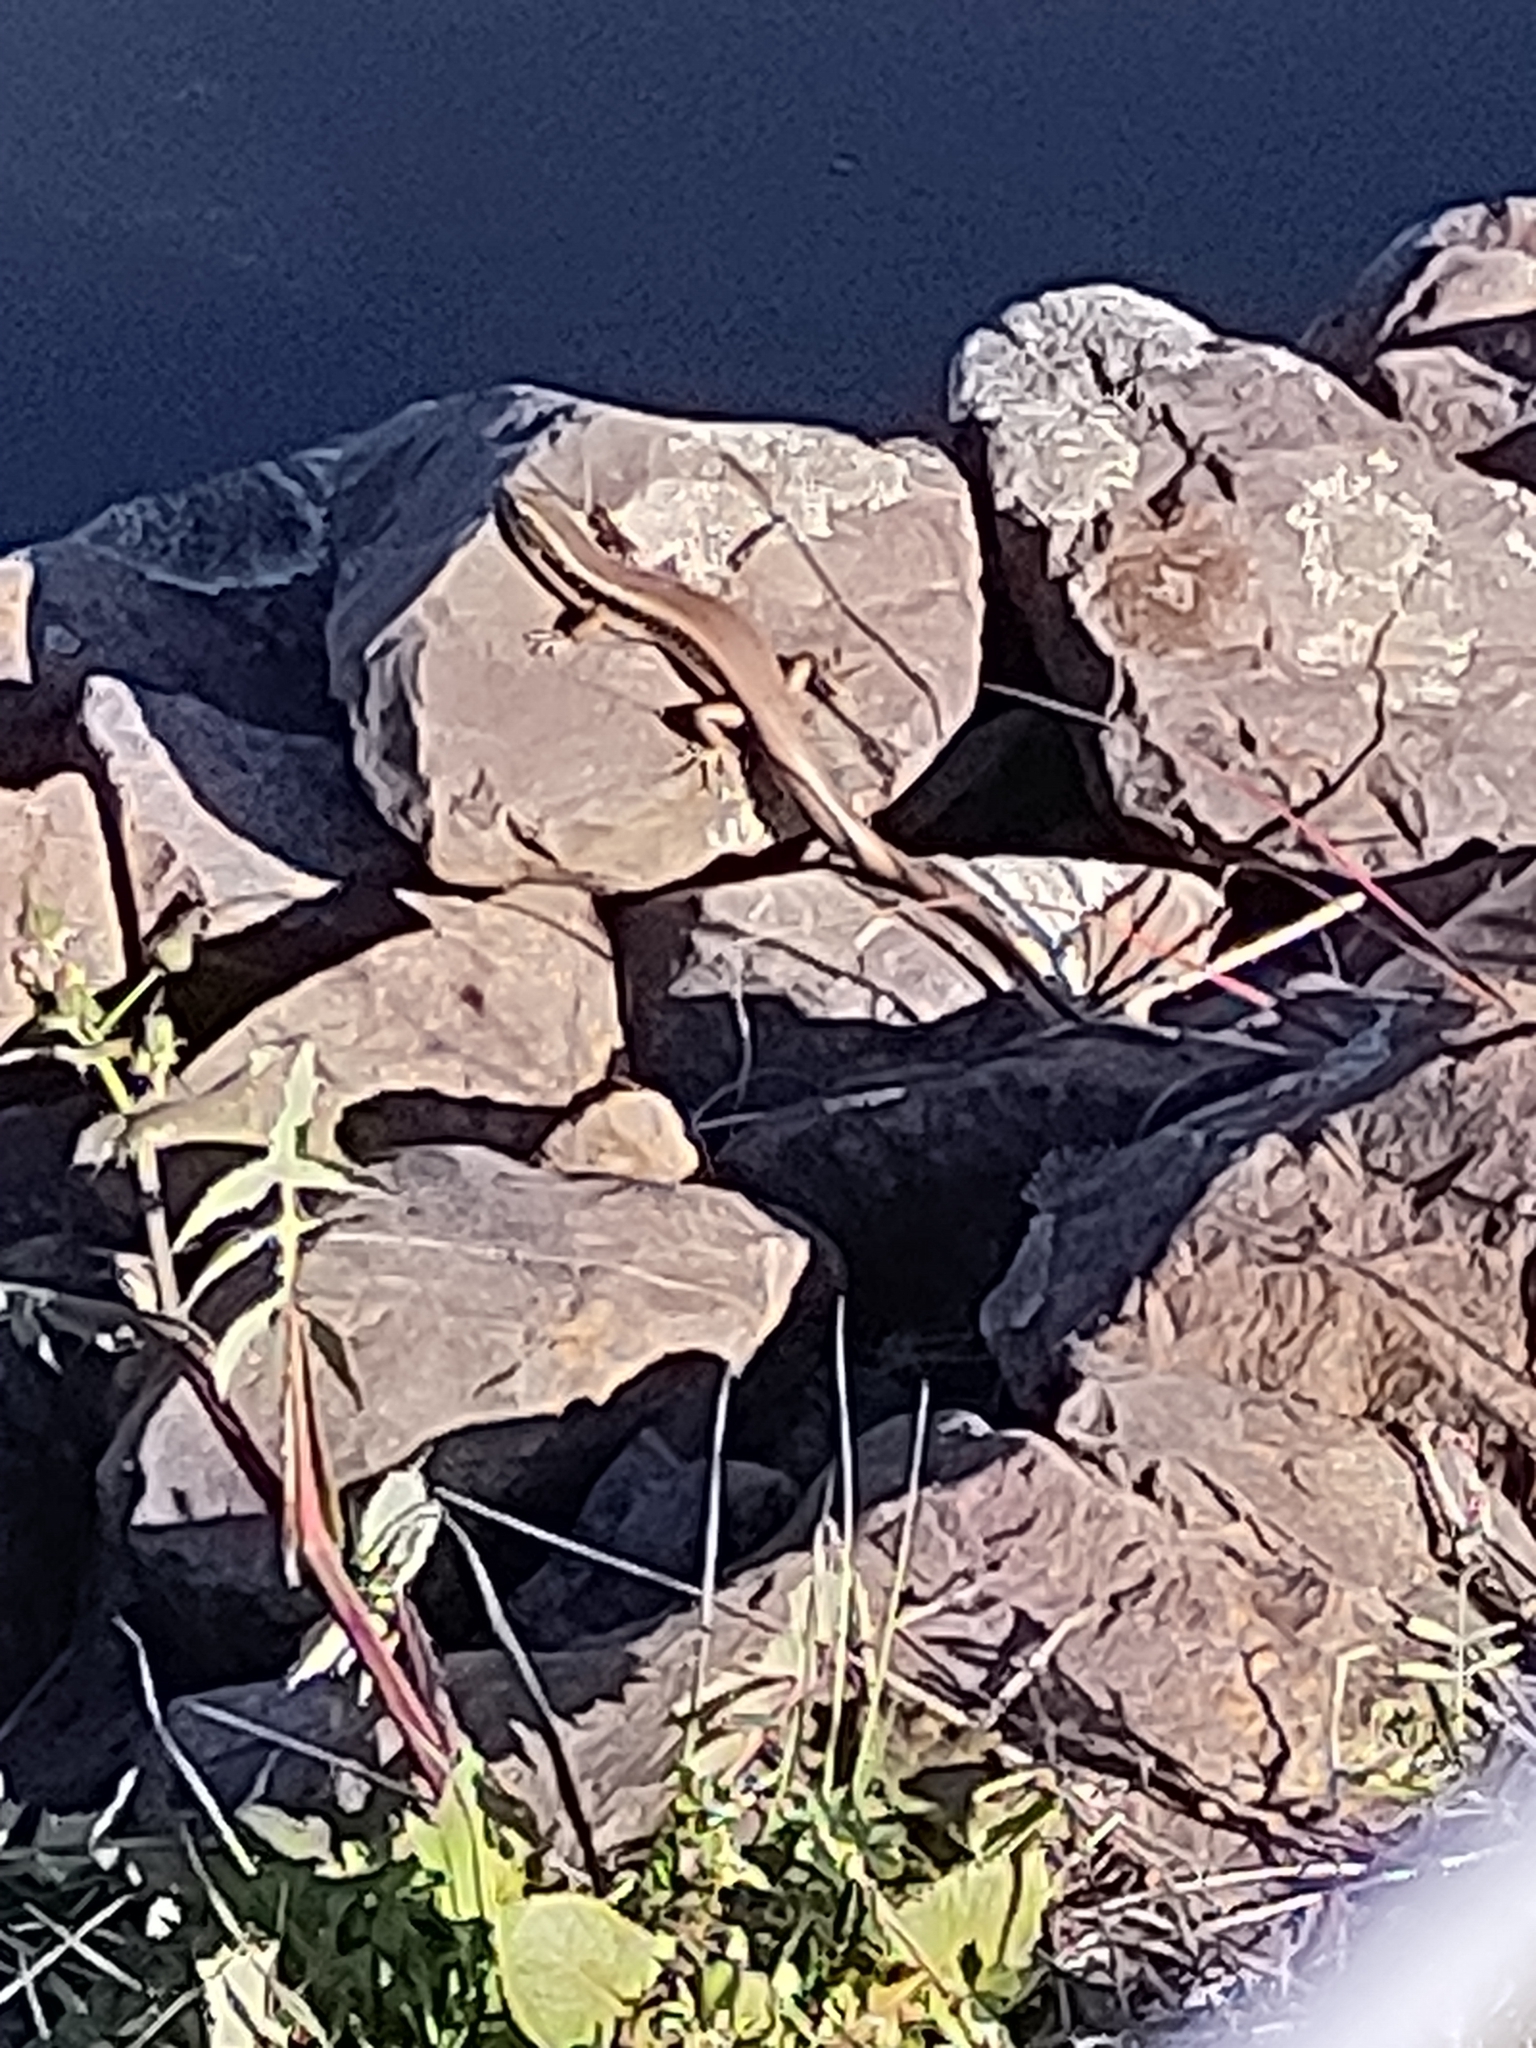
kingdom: Animalia
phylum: Chordata
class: Squamata
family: Scincidae
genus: Eulamprus
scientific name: Eulamprus quoyii
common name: Eastern water skink
